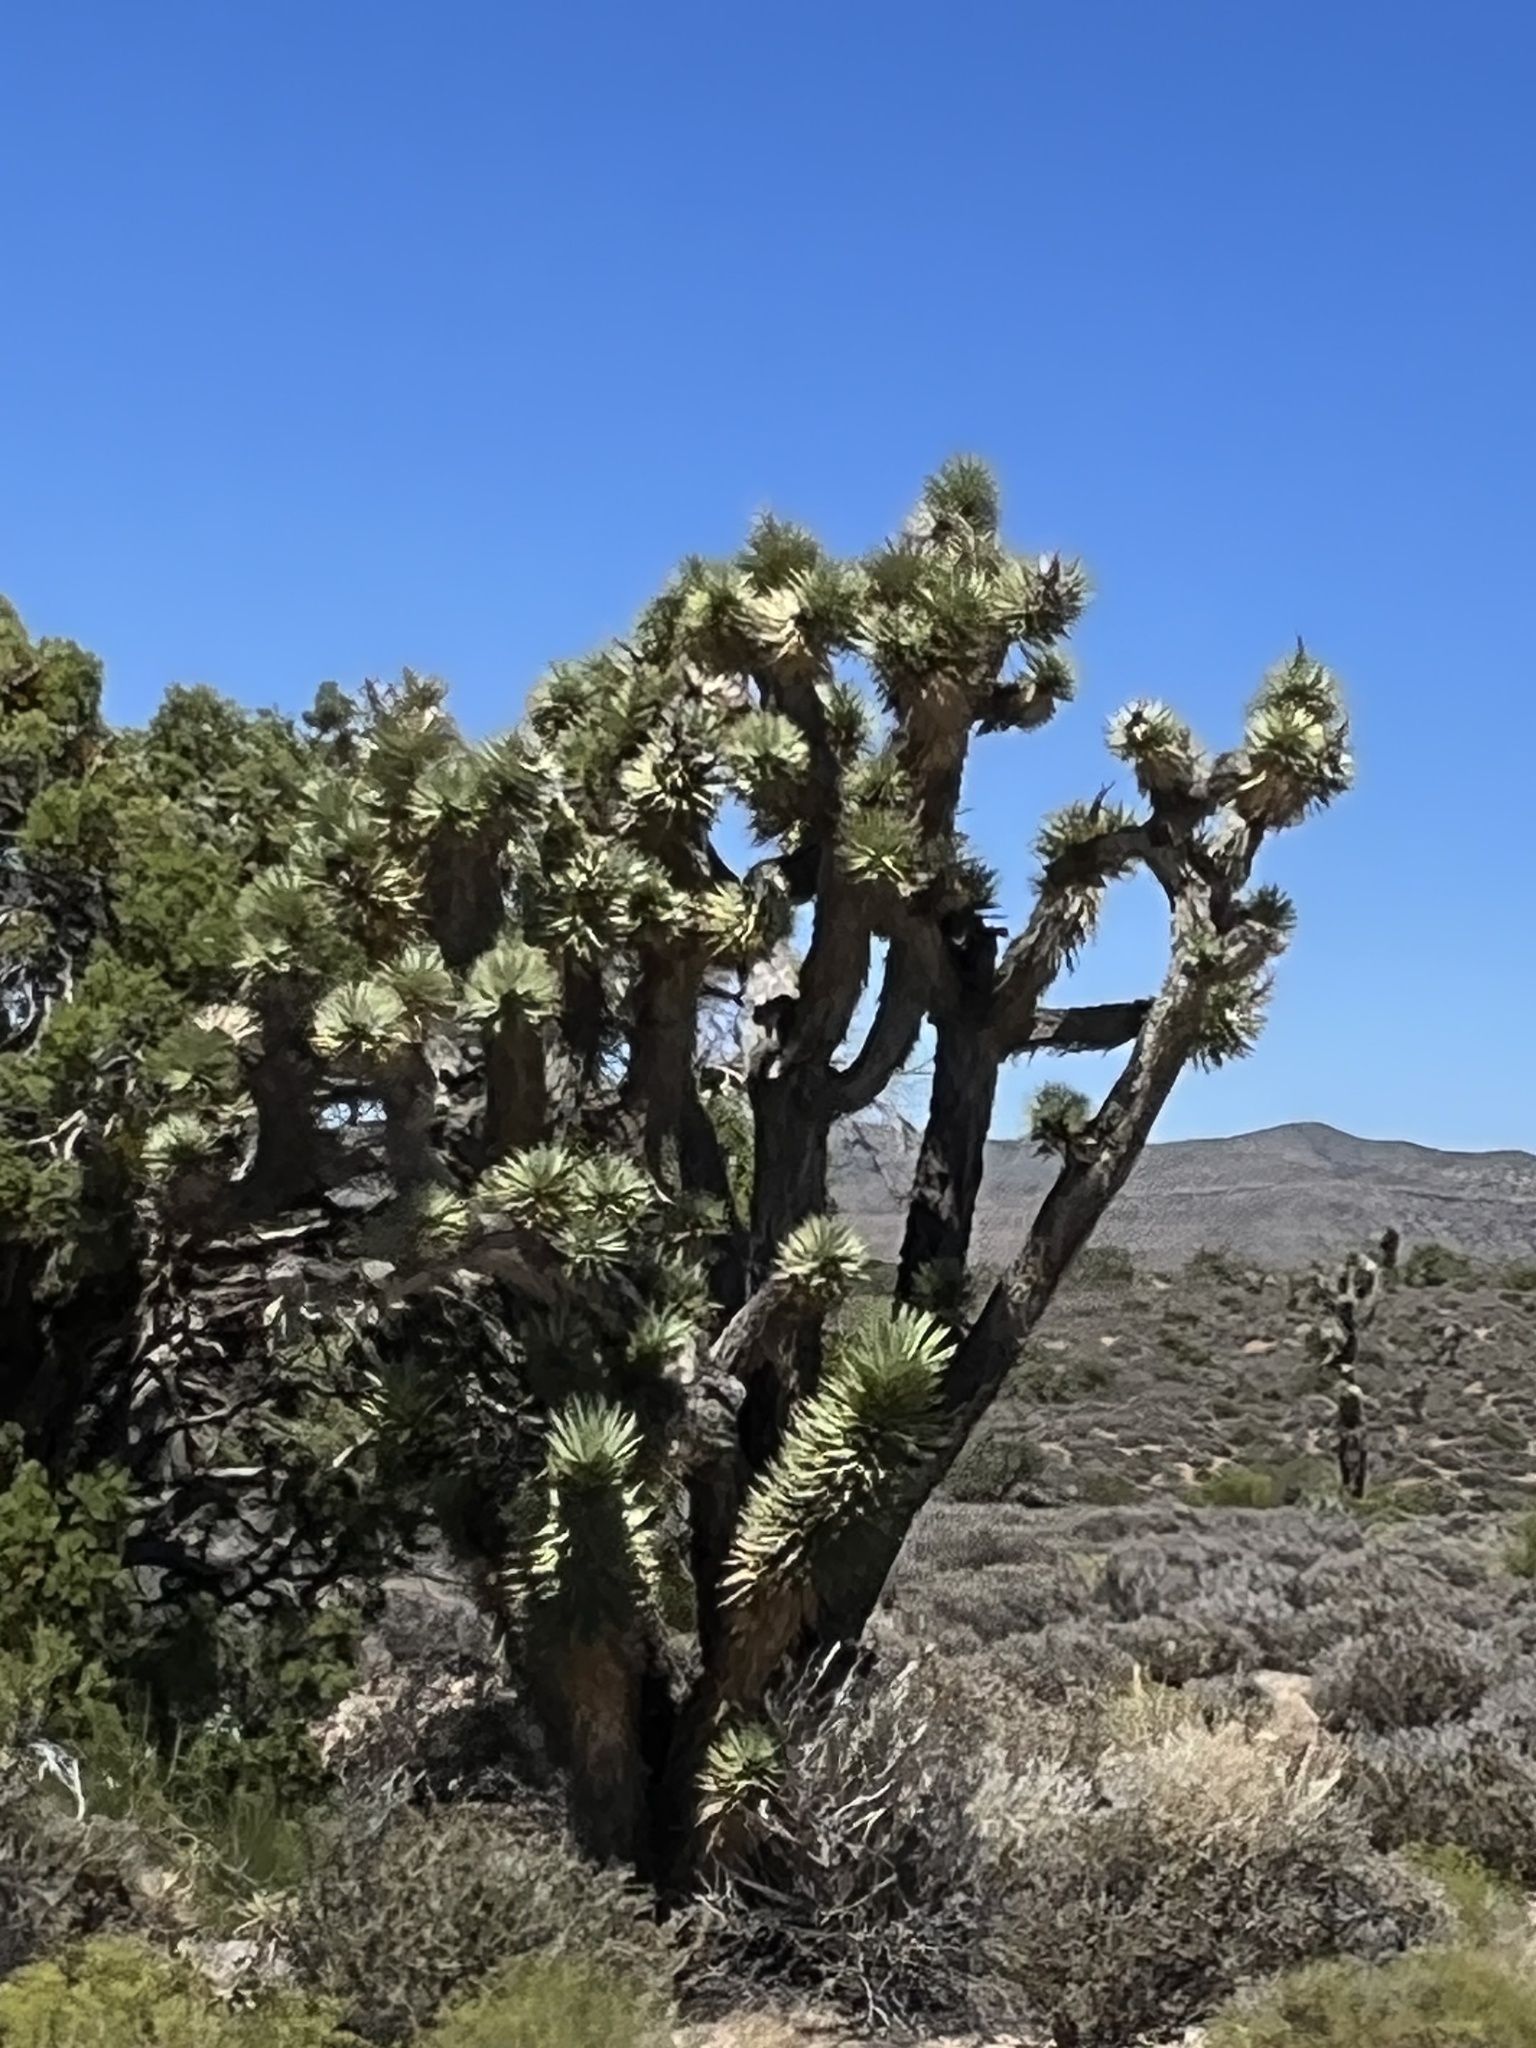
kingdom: Plantae
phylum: Tracheophyta
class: Liliopsida
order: Asparagales
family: Asparagaceae
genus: Yucca
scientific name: Yucca brevifolia
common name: Joshua tree
